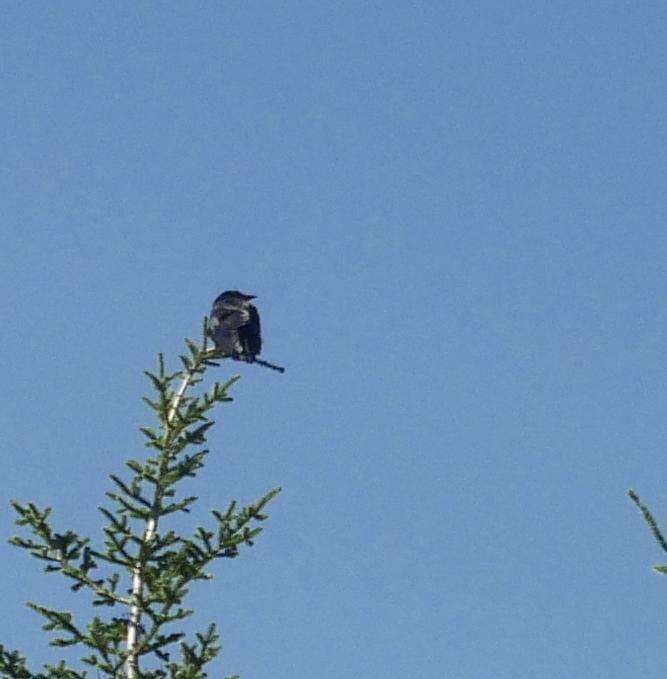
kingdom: Animalia
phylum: Chordata
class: Aves
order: Passeriformes
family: Corvidae
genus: Corvus
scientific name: Corvus brachyrhynchos
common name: American crow
